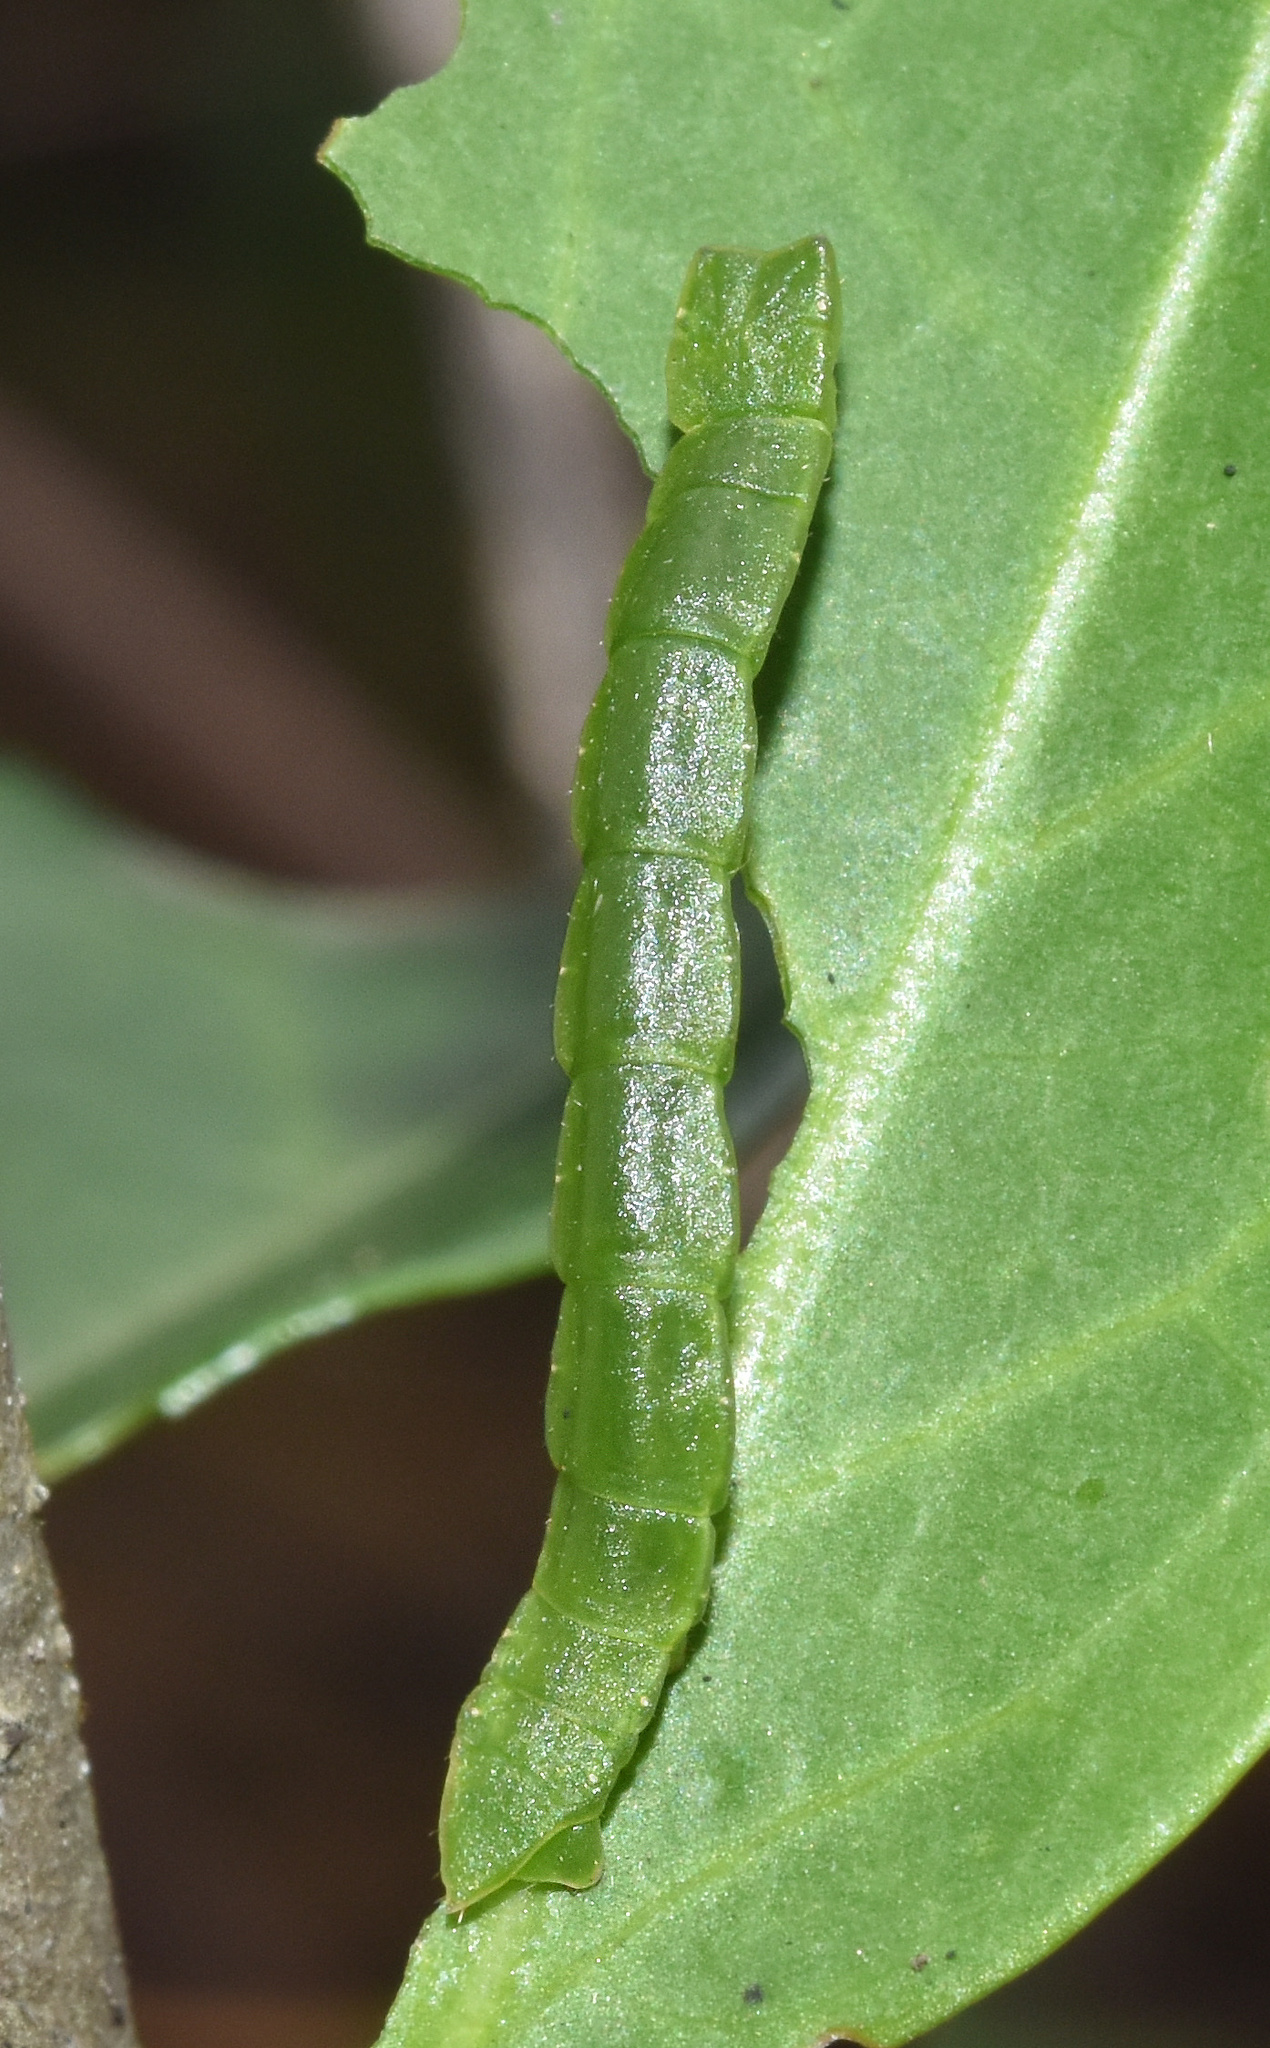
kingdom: Animalia
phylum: Arthropoda
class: Insecta
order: Lepidoptera
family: Geometridae
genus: Heterorachis
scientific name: Heterorachis devocata
